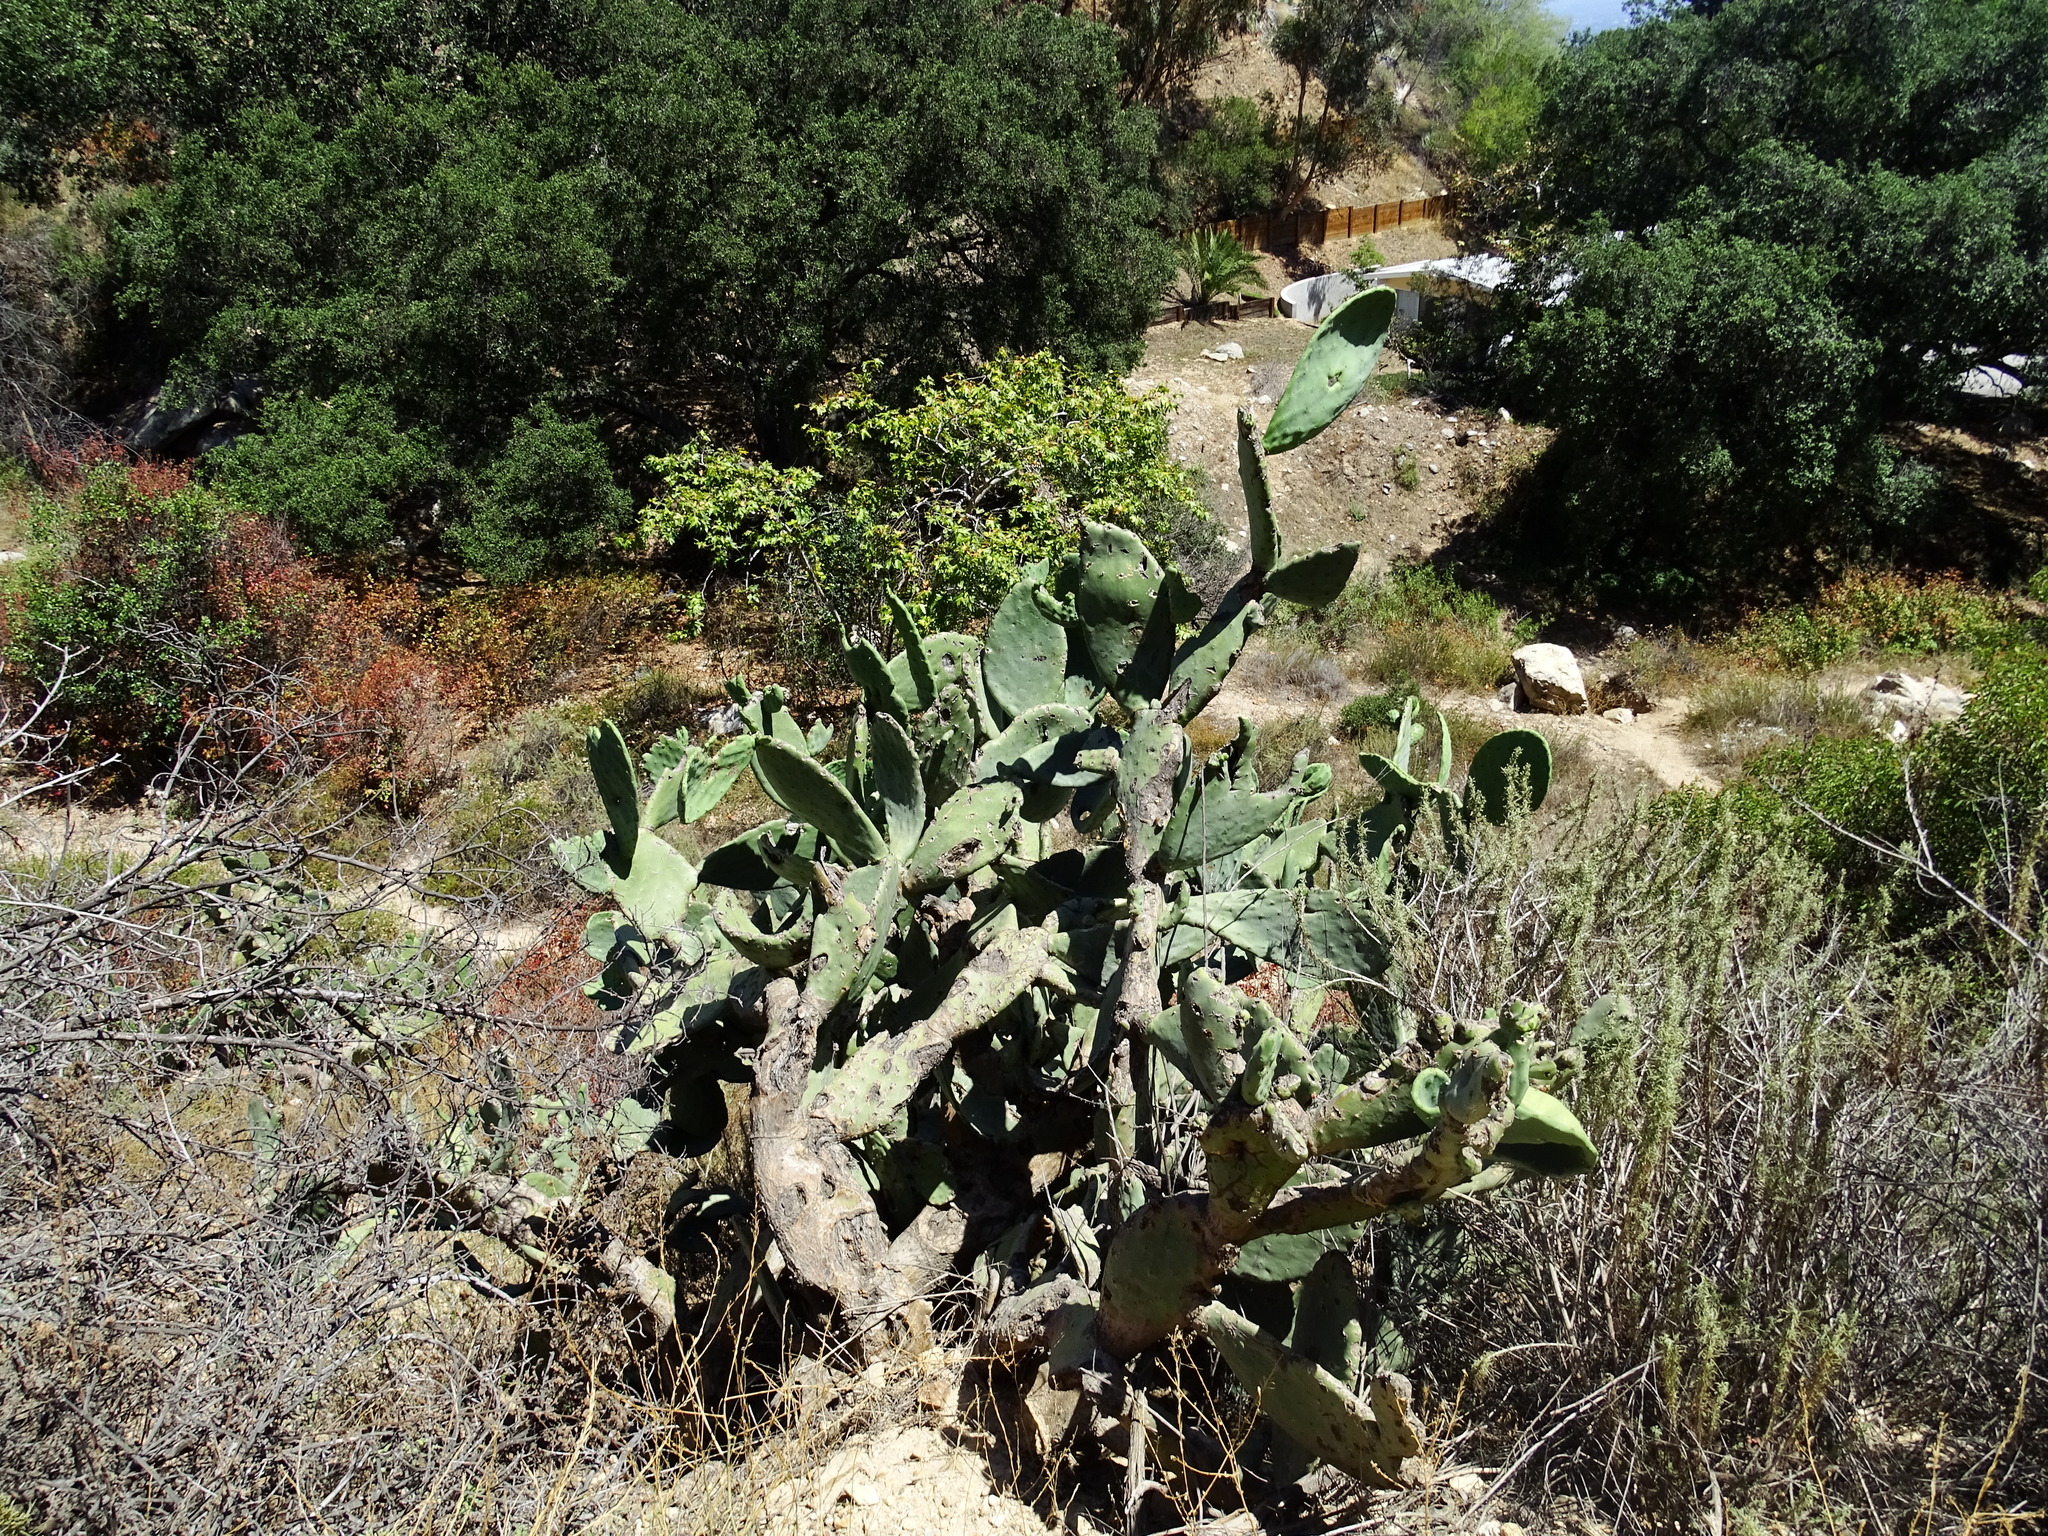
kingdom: Plantae
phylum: Tracheophyta
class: Magnoliopsida
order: Caryophyllales
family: Cactaceae
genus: Opuntia
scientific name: Opuntia ficus-indica
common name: Barbary fig
